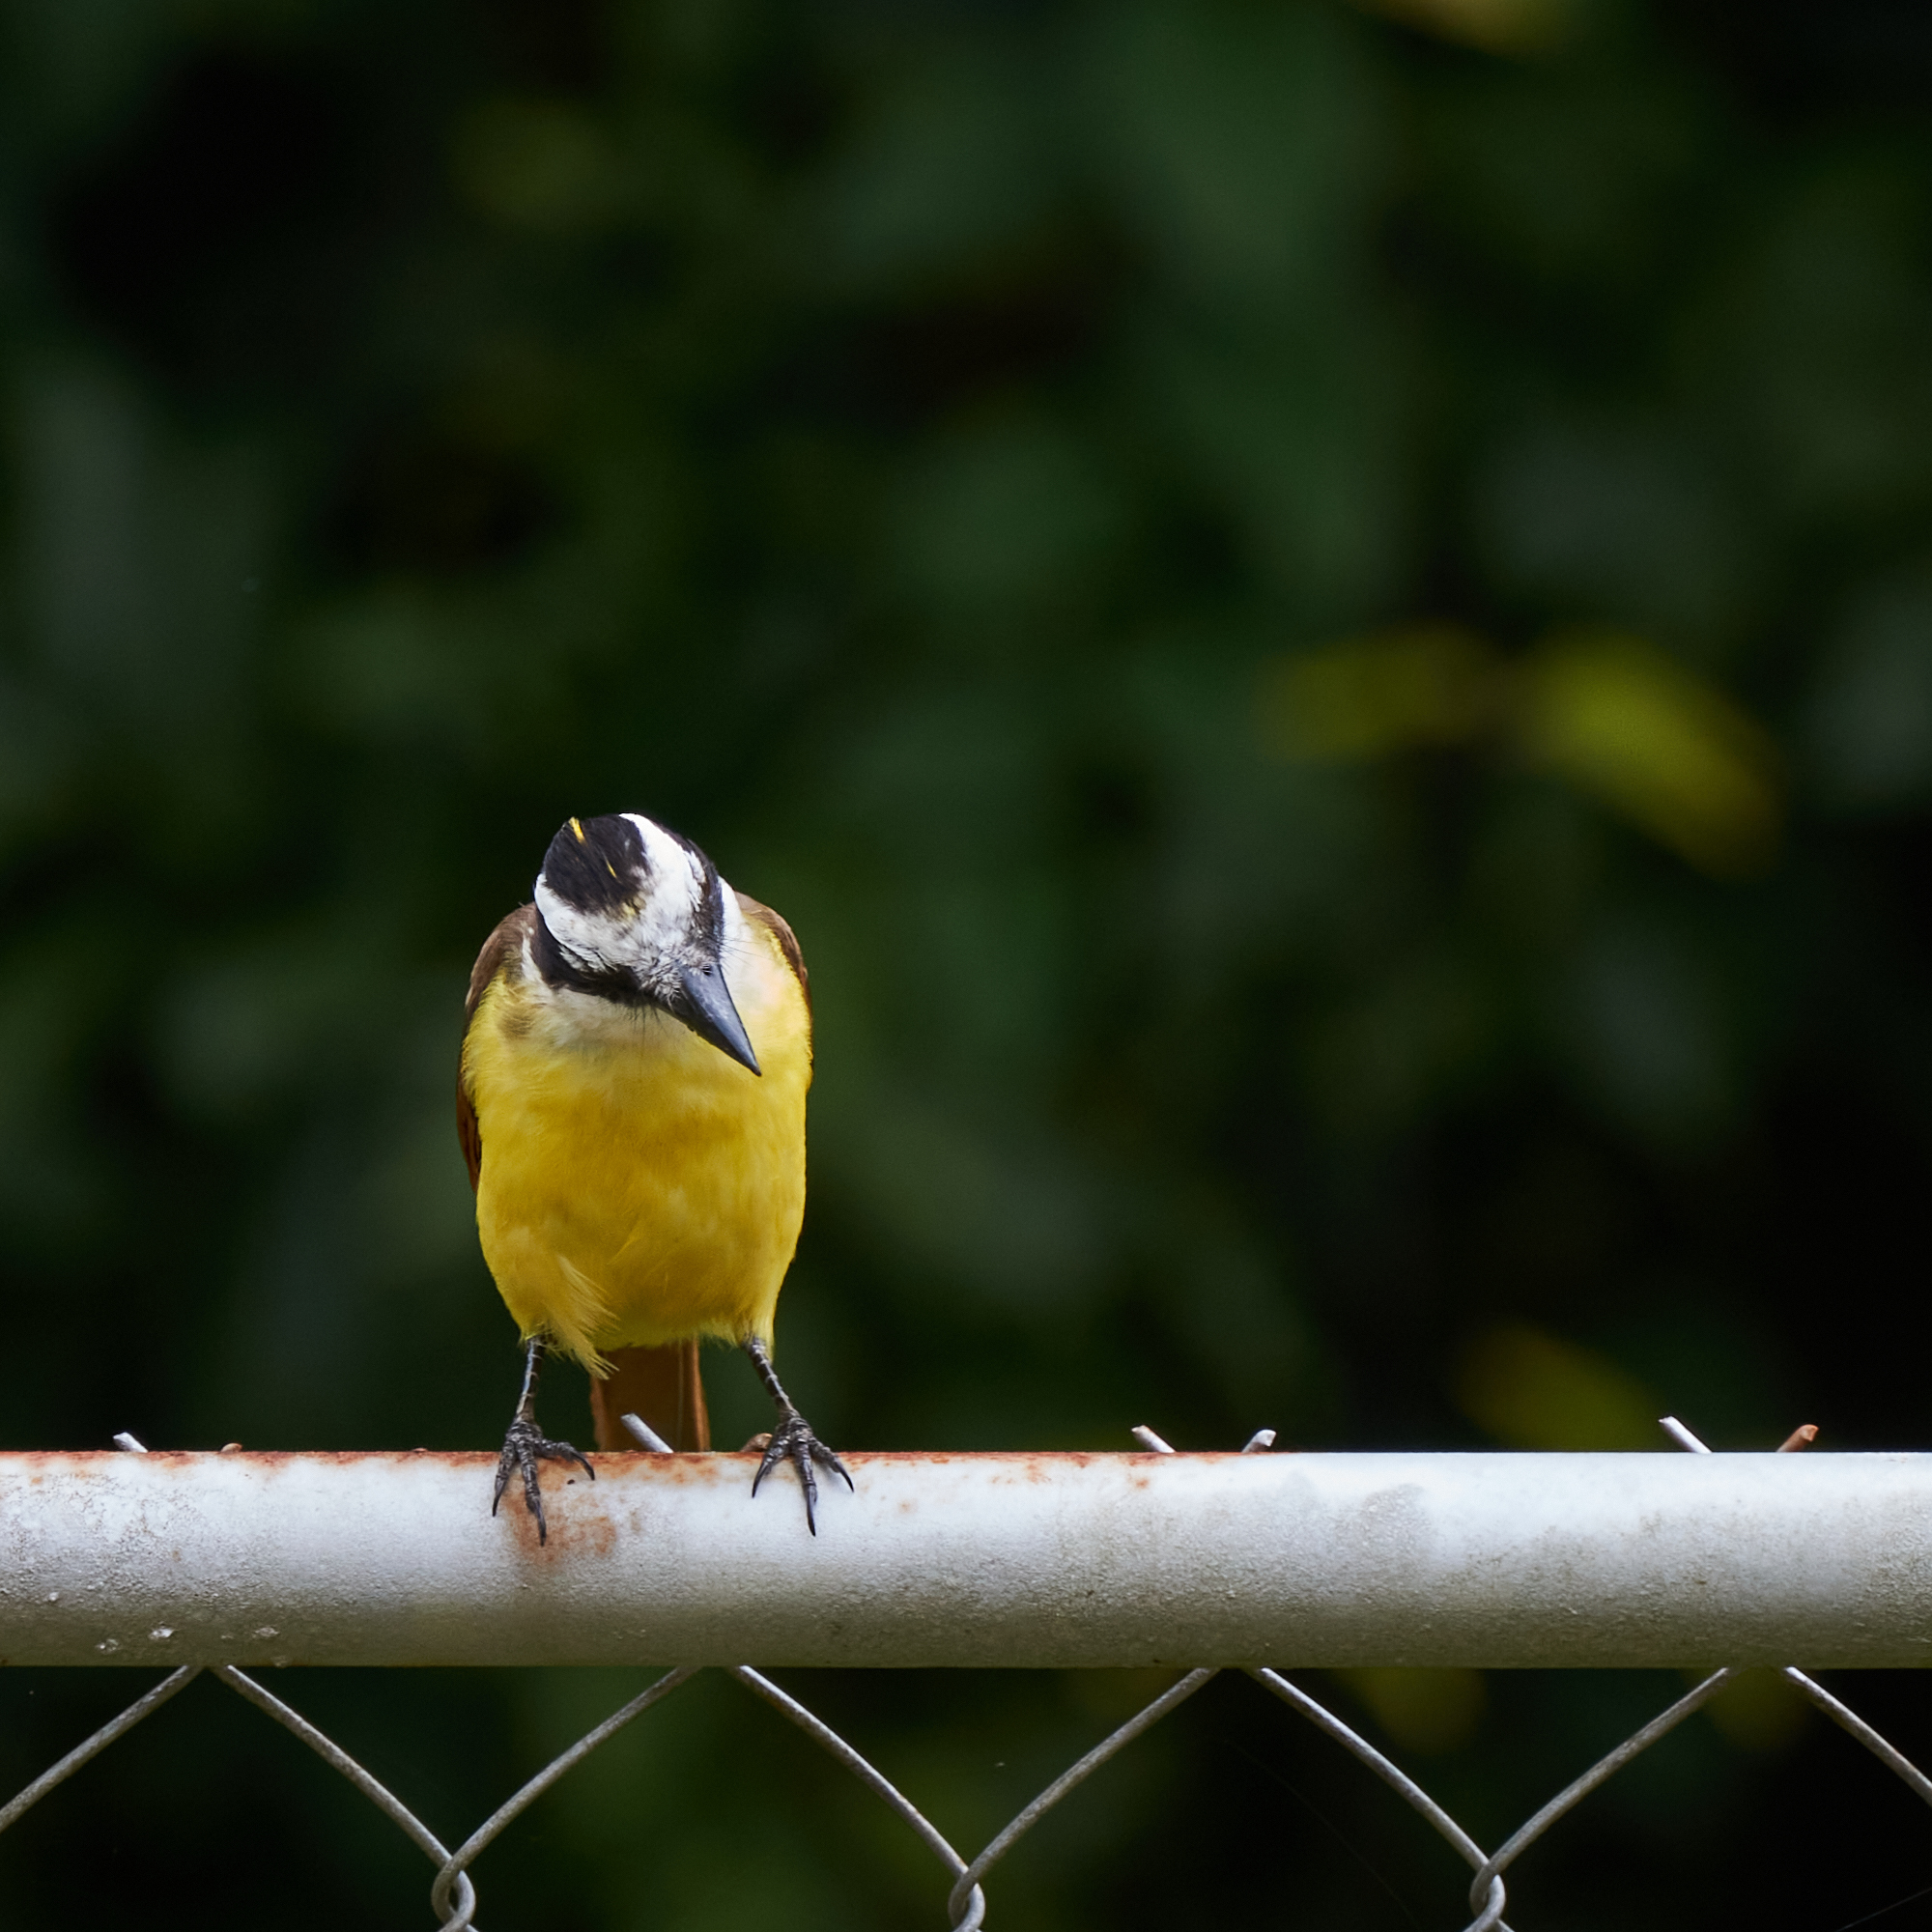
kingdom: Animalia
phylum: Chordata
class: Aves
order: Passeriformes
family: Tyrannidae
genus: Pitangus
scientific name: Pitangus sulphuratus
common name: Great kiskadee
